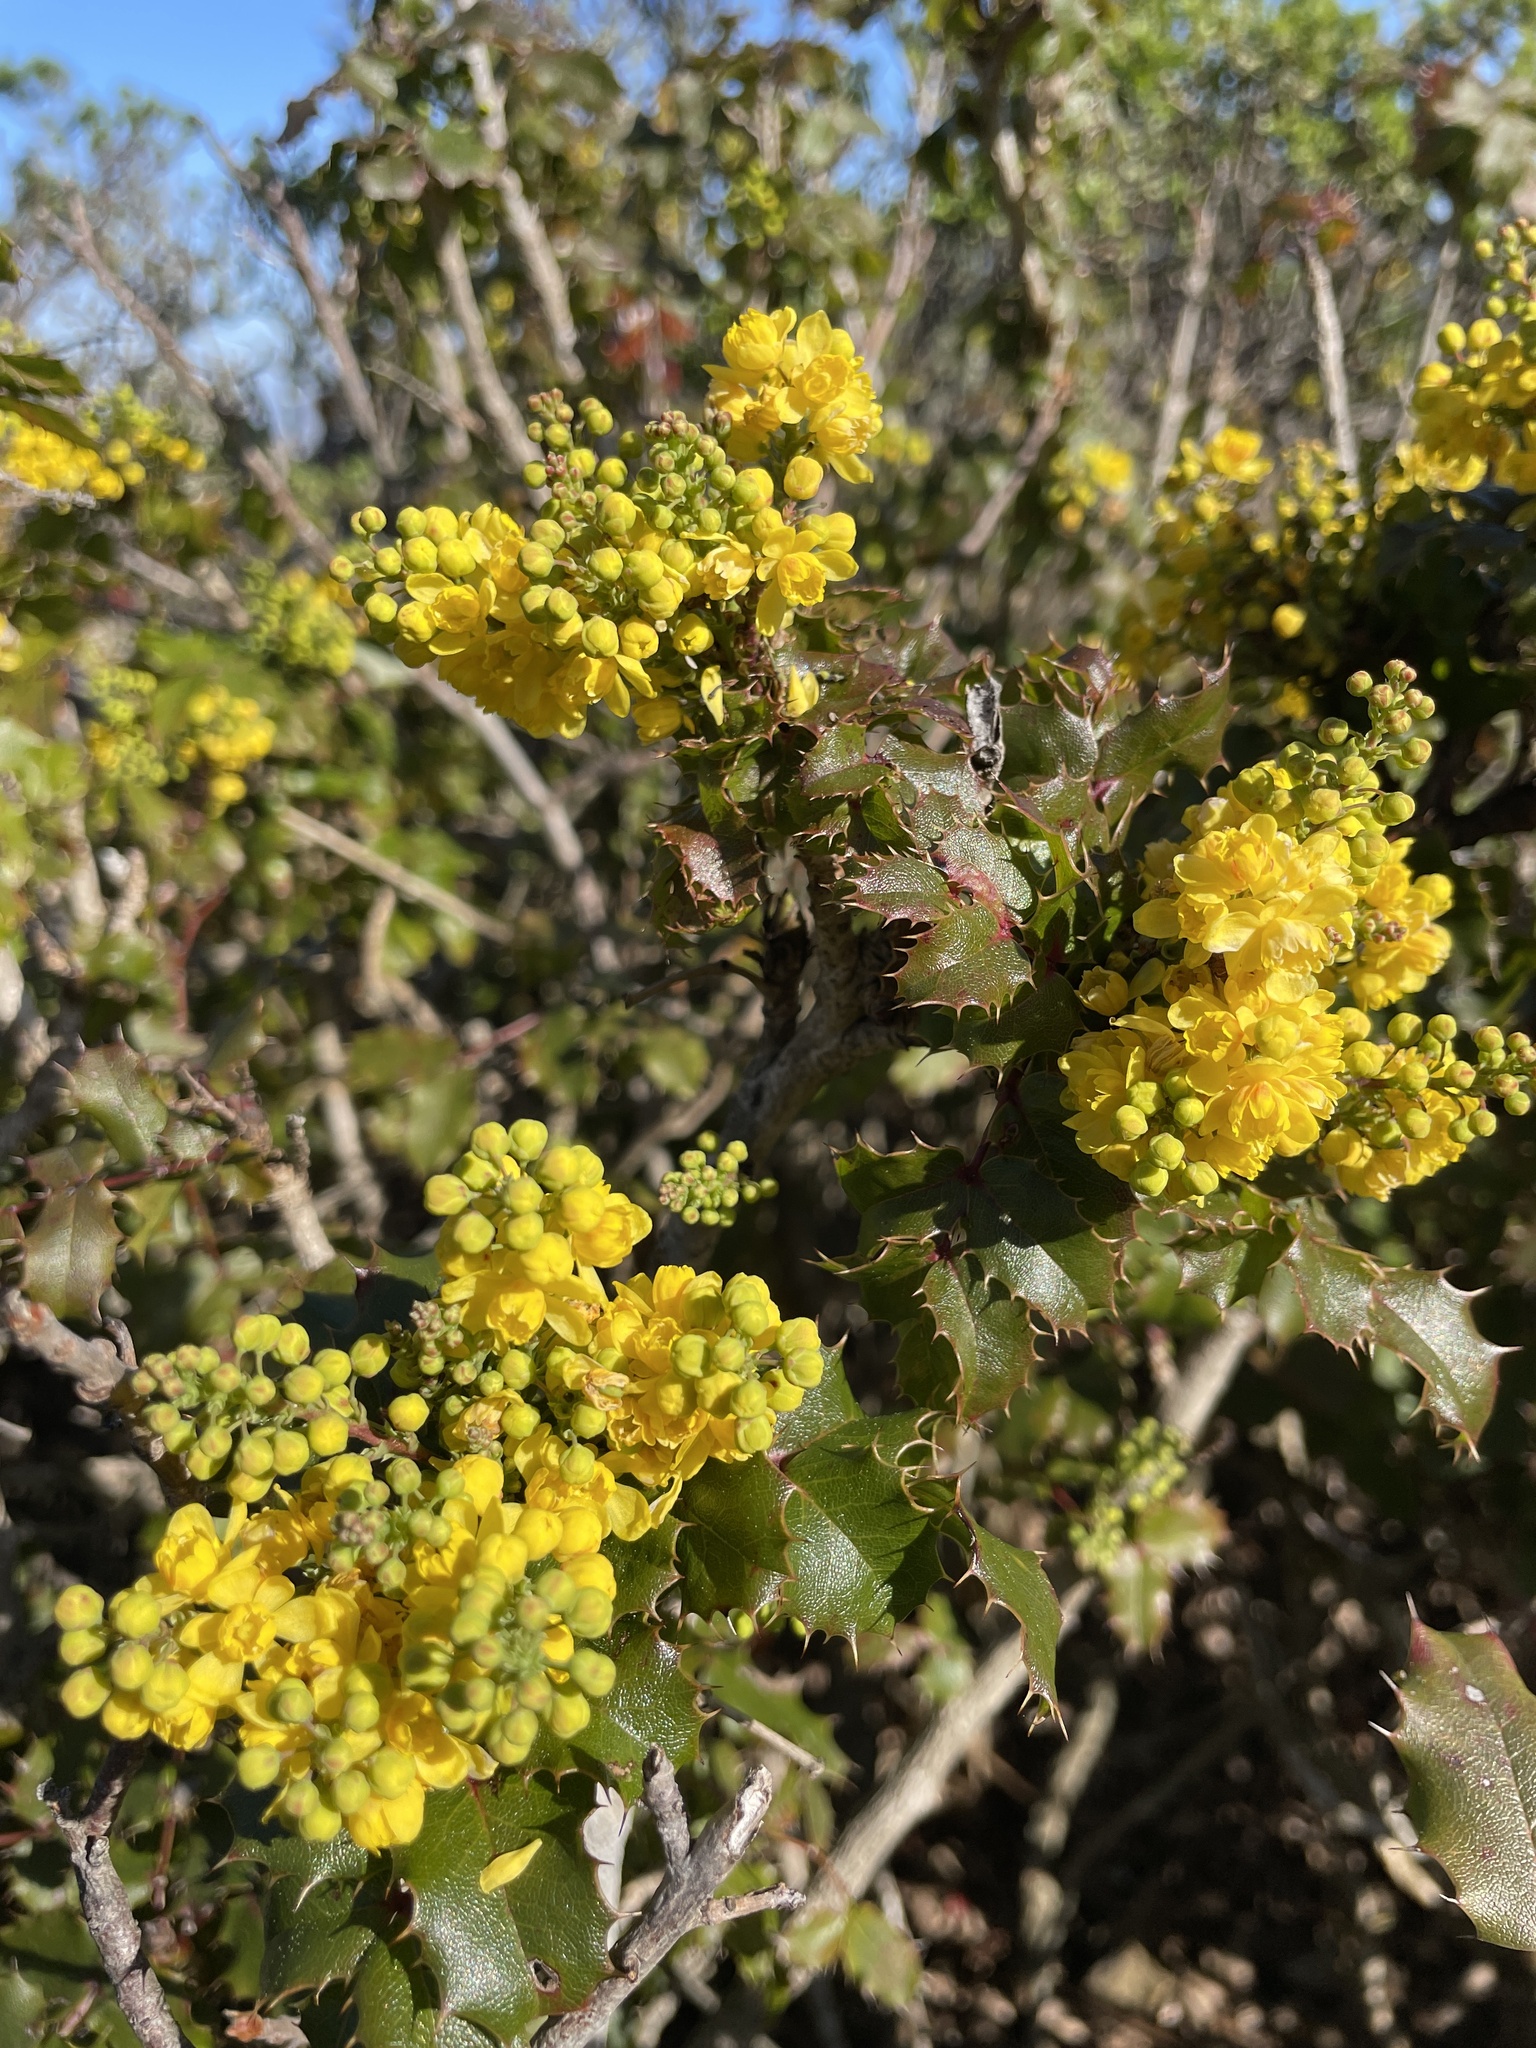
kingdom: Plantae
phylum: Tracheophyta
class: Magnoliopsida
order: Ranunculales
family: Berberidaceae
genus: Mahonia
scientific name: Mahonia
